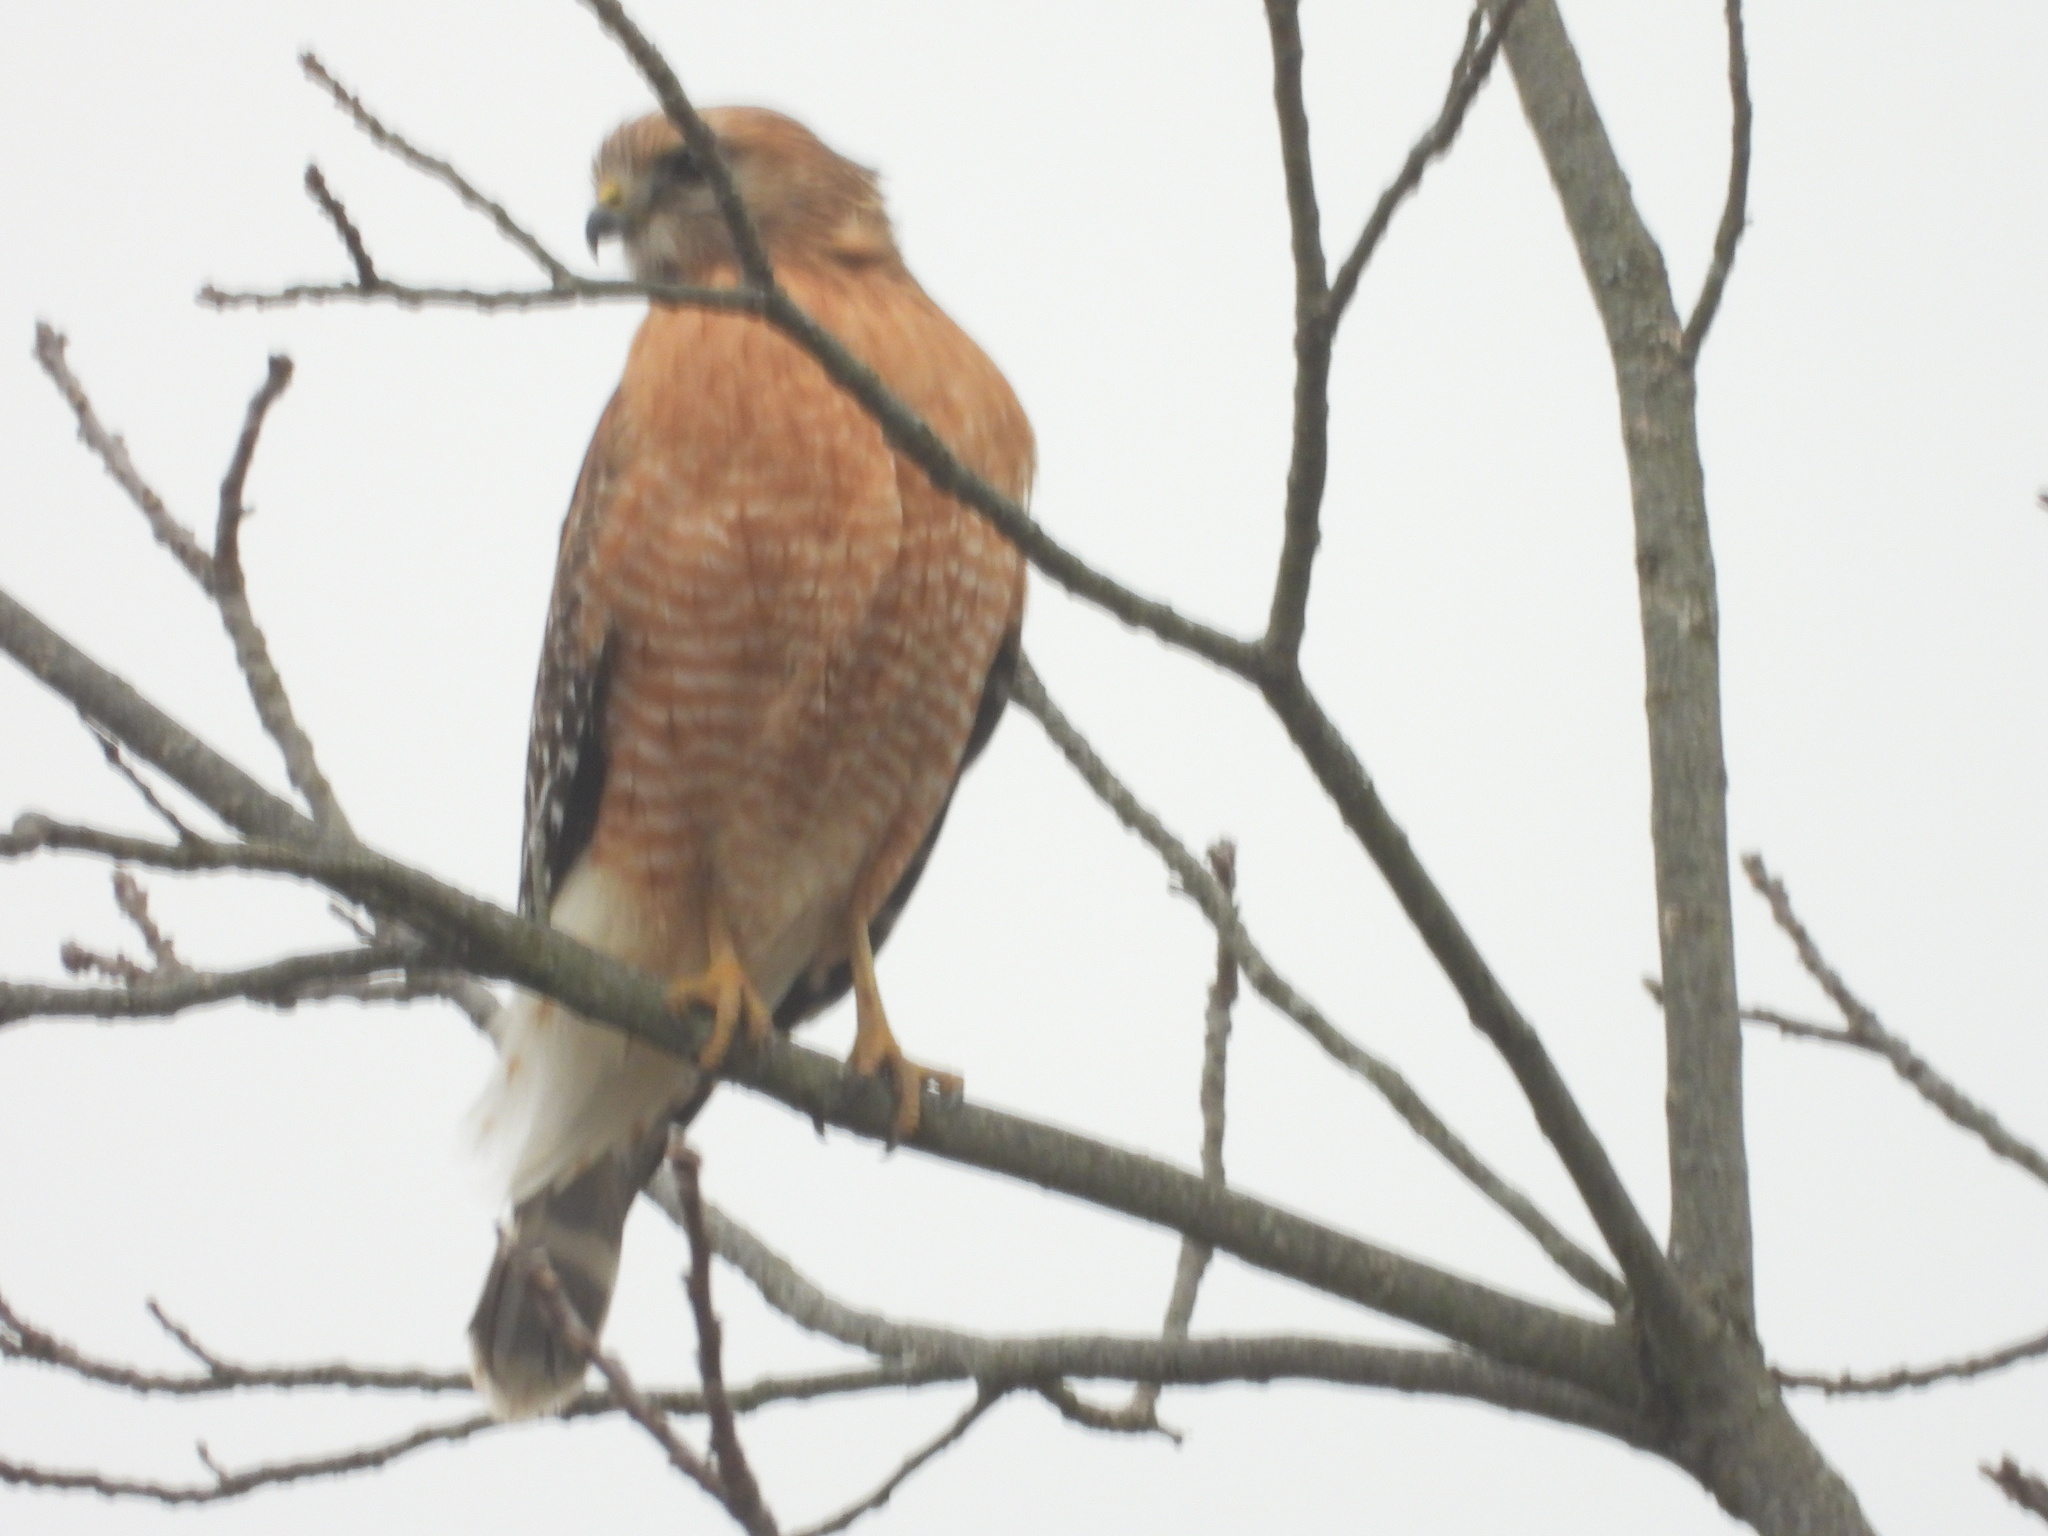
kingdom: Animalia
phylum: Chordata
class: Aves
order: Accipitriformes
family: Accipitridae
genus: Buteo
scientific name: Buteo lineatus
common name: Red-shouldered hawk
